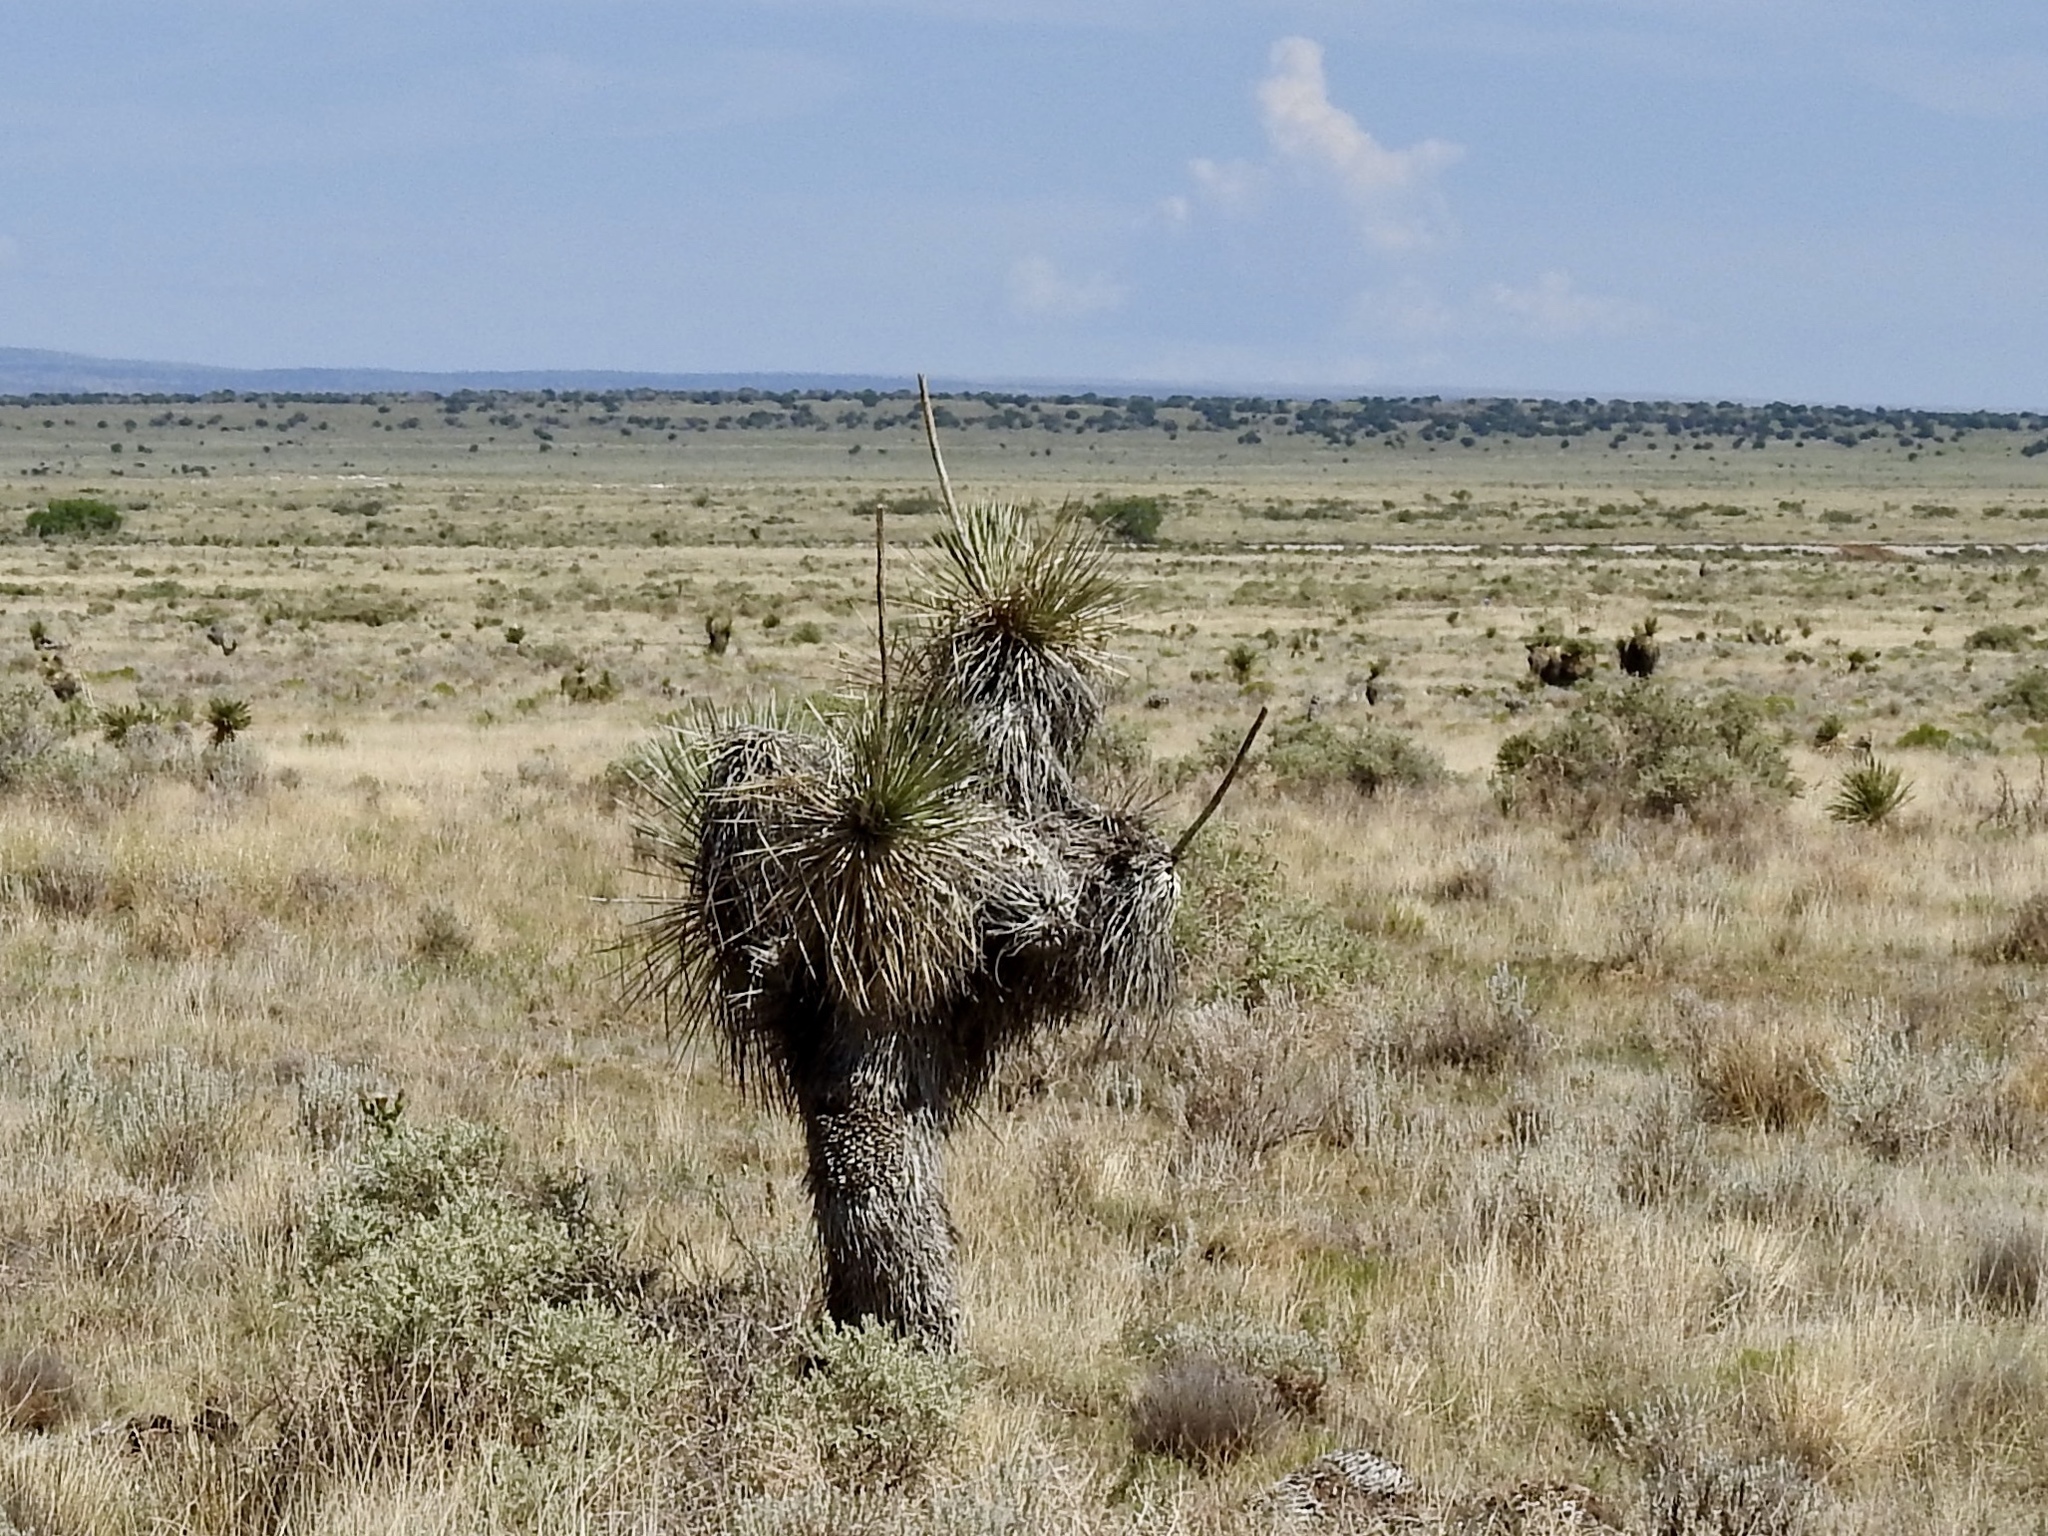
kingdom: Plantae
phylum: Tracheophyta
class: Liliopsida
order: Asparagales
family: Asparagaceae
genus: Yucca
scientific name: Yucca elata
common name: Palmella
